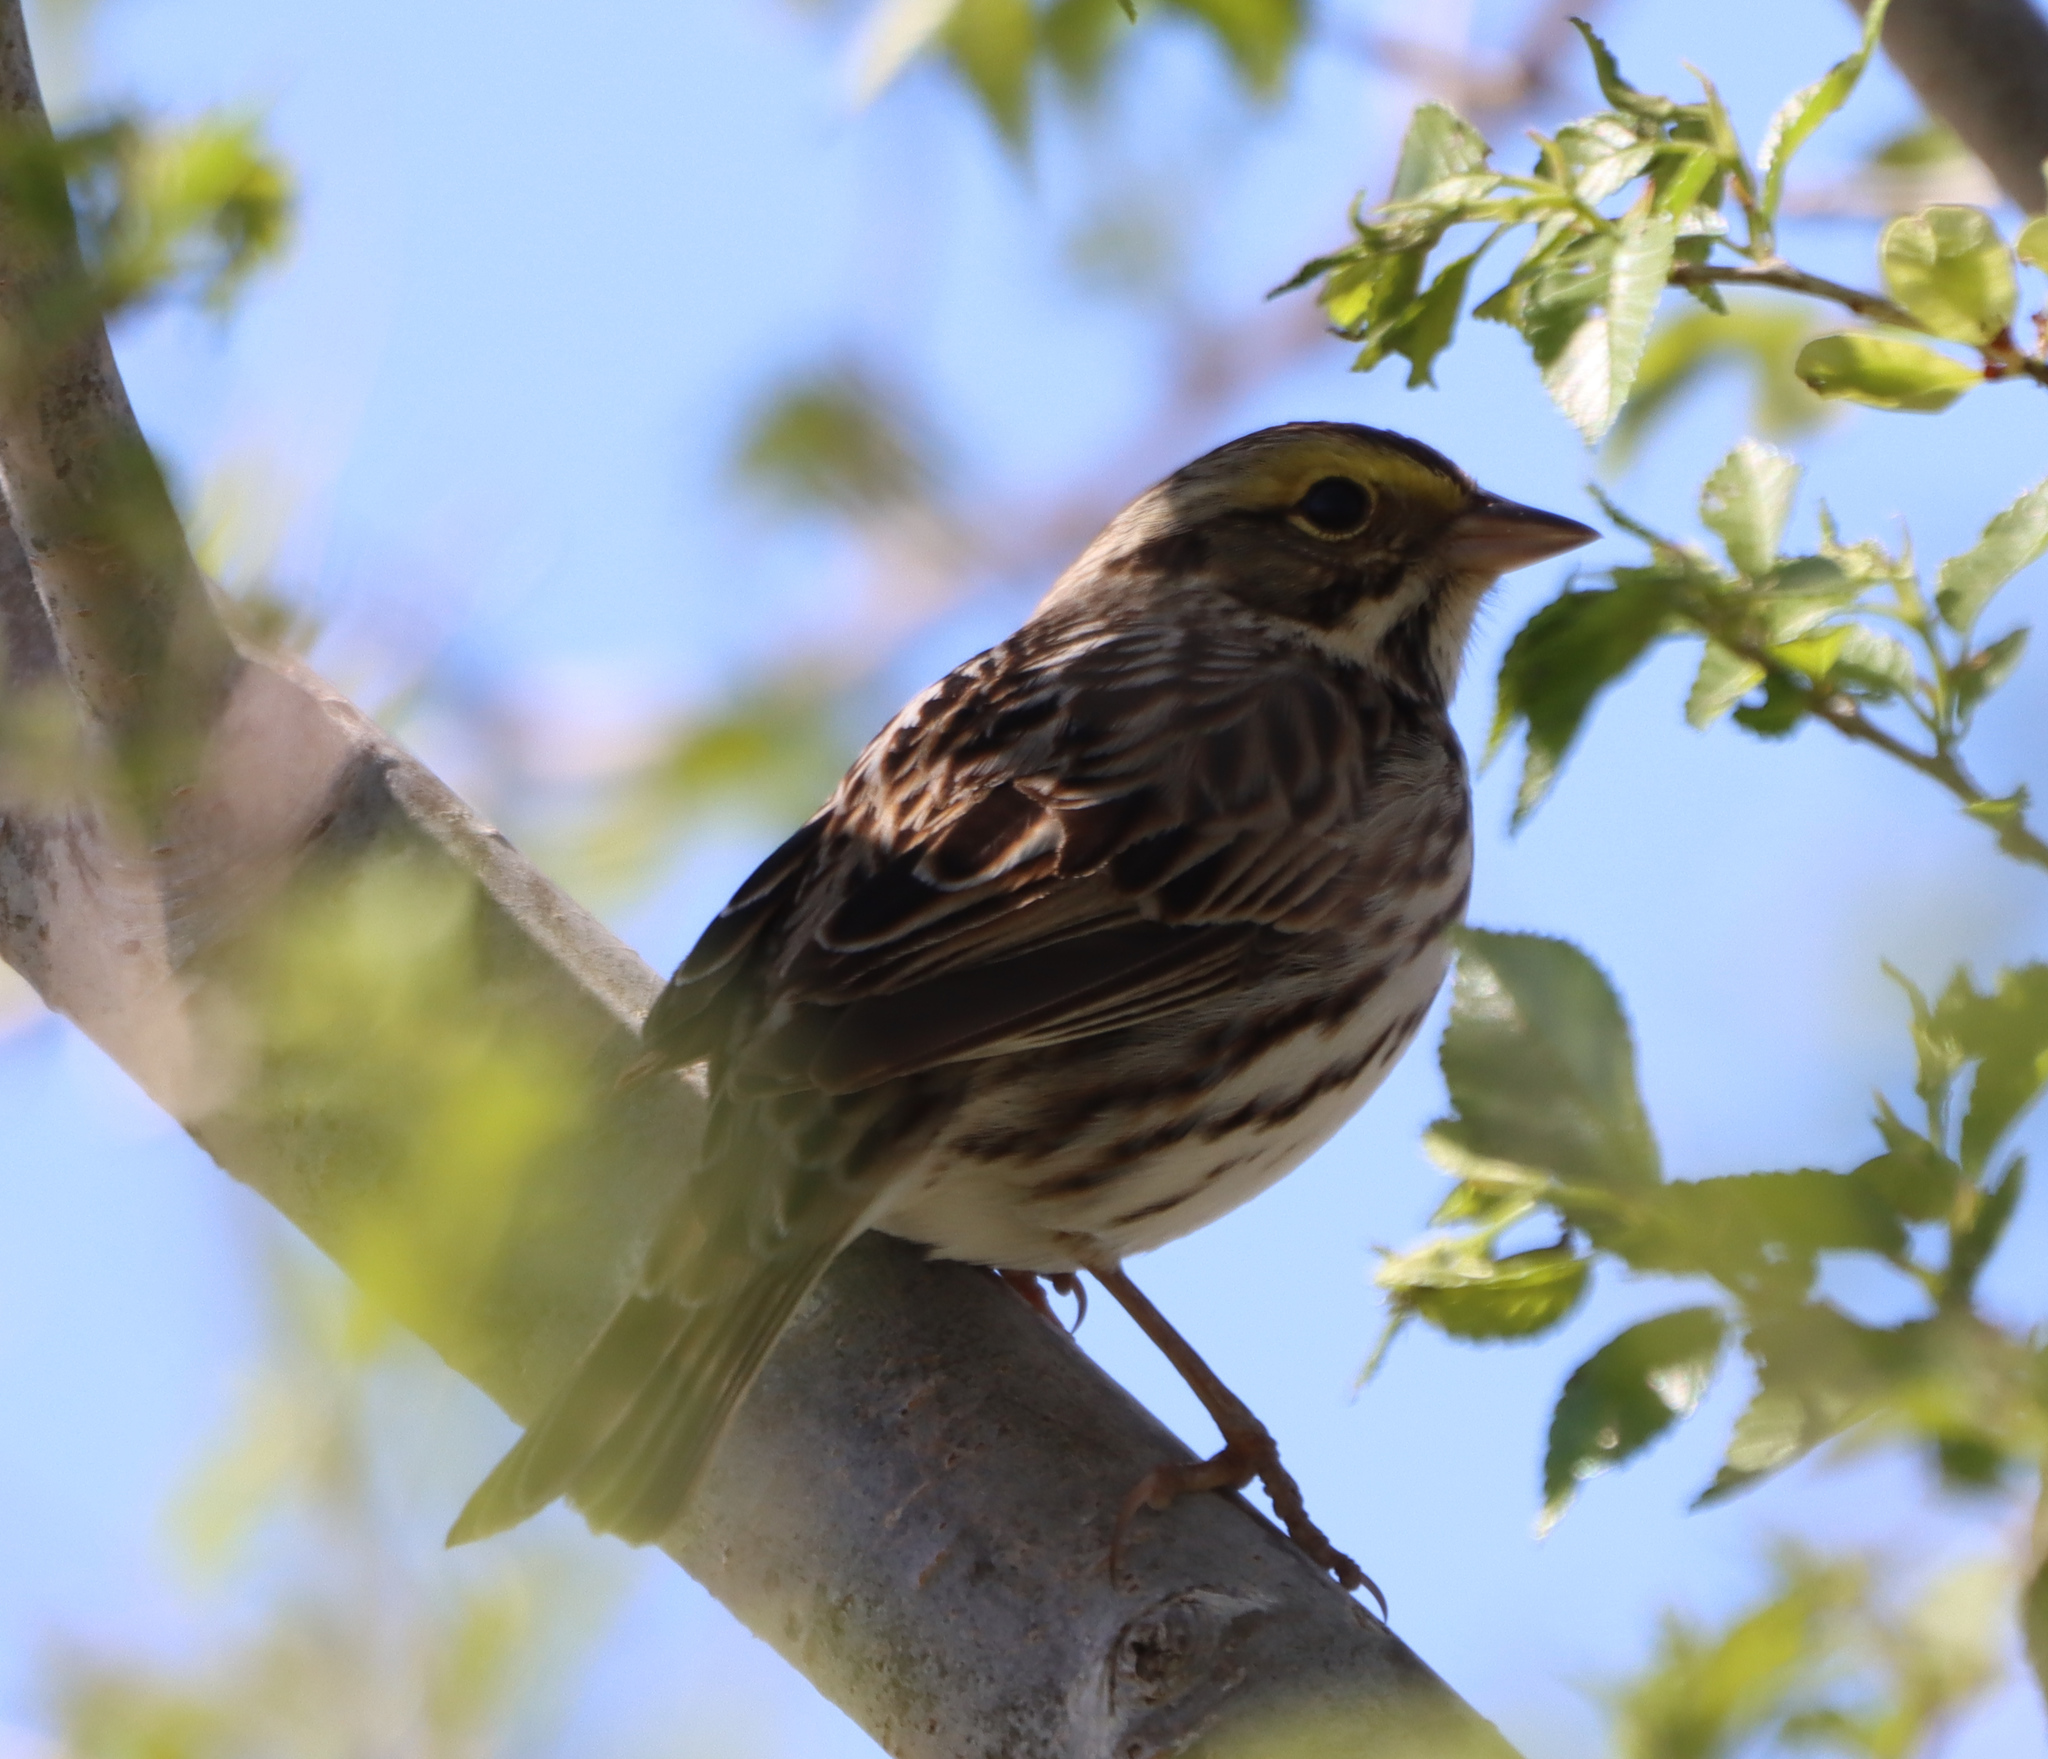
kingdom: Animalia
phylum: Chordata
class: Aves
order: Passeriformes
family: Passerellidae
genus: Passerculus
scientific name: Passerculus sandwichensis
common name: Savannah sparrow
